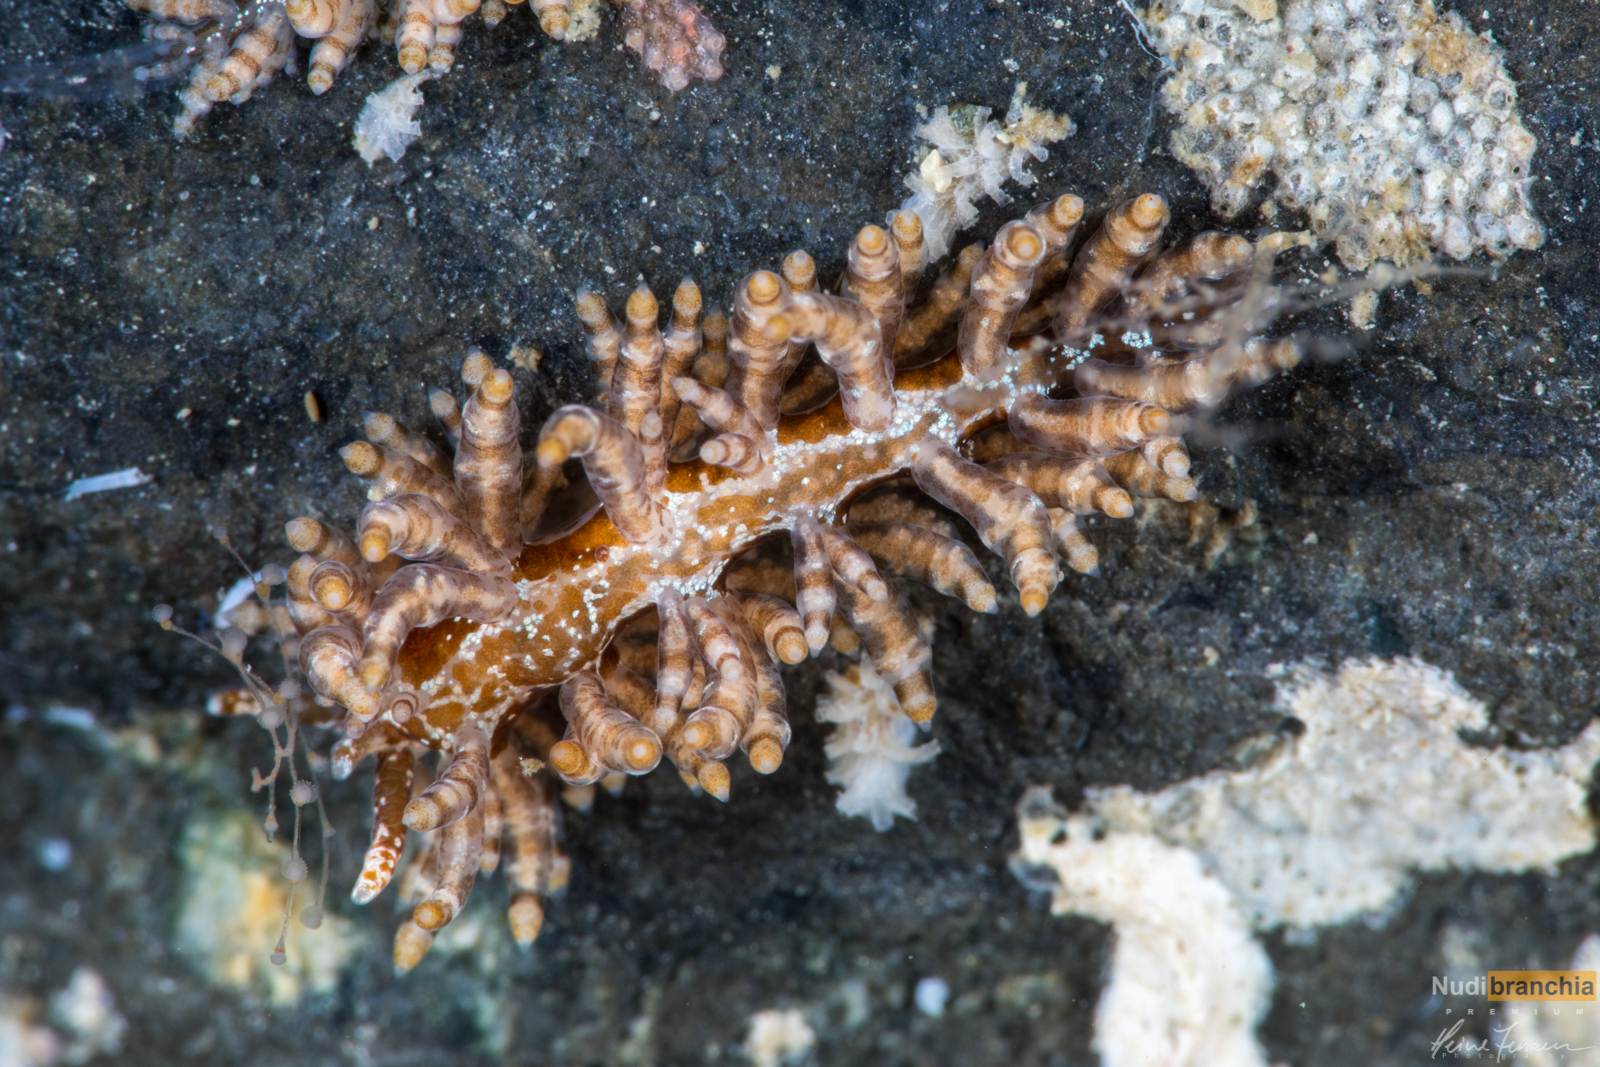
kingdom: Animalia
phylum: Mollusca
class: Gastropoda
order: Nudibranchia
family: Eubranchidae
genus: Eubranchus
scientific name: Eubranchus vittatus
